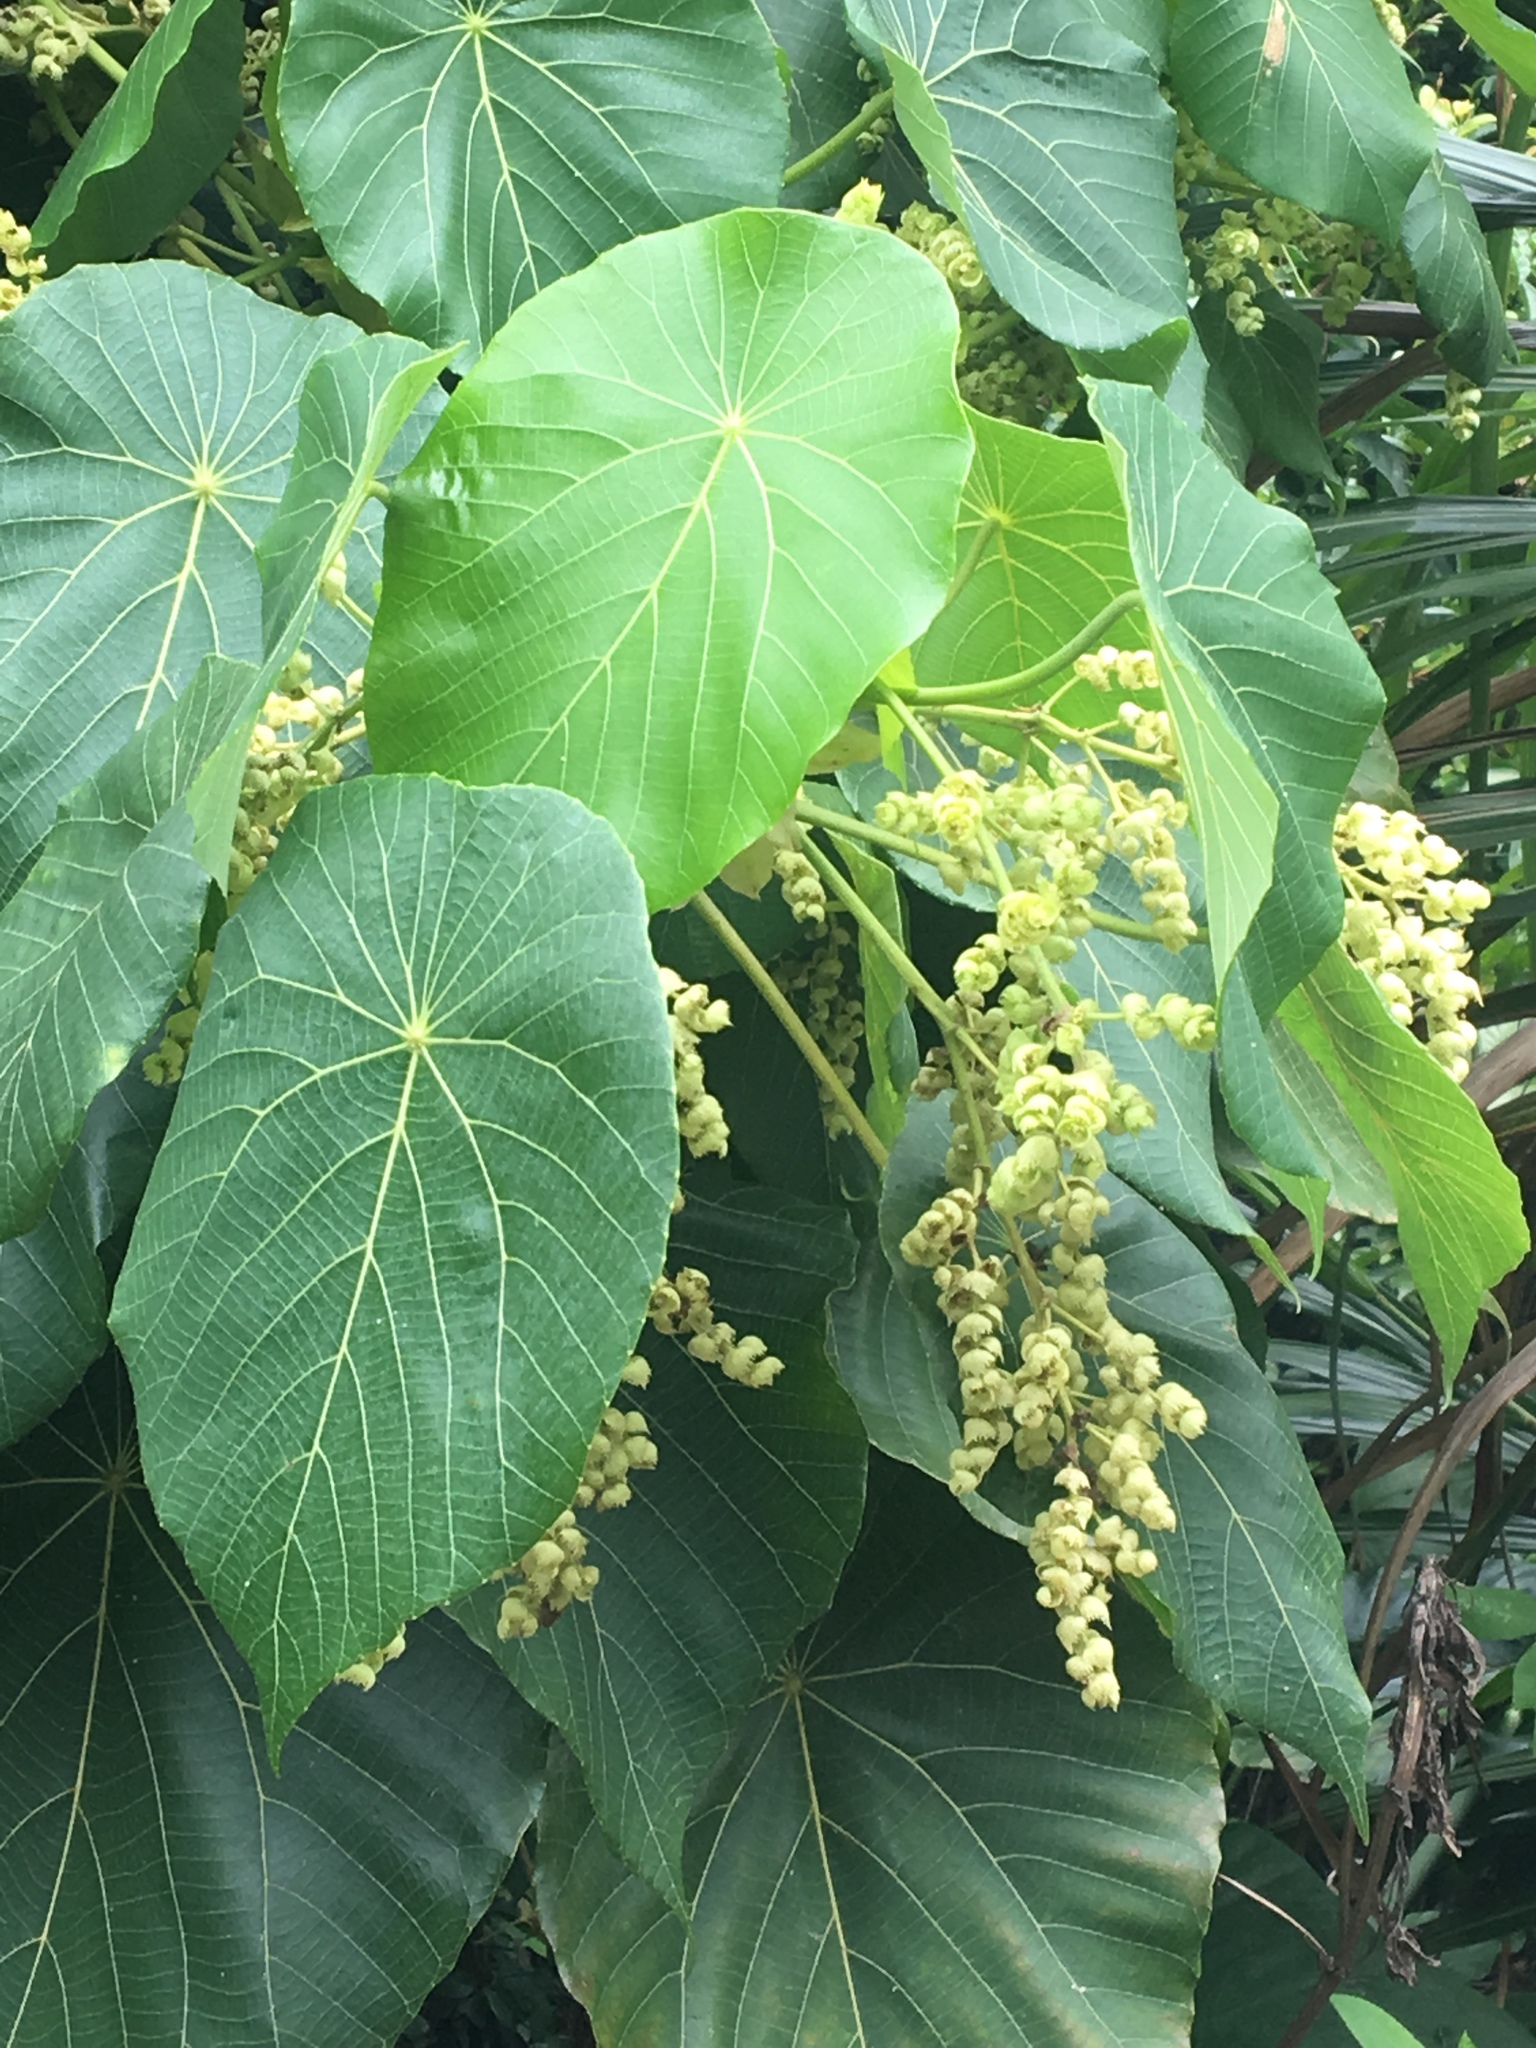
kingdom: Plantae
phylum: Tracheophyta
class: Magnoliopsida
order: Malpighiales
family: Euphorbiaceae
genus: Macaranga
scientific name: Macaranga tanarius
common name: Parasol leaf tree
